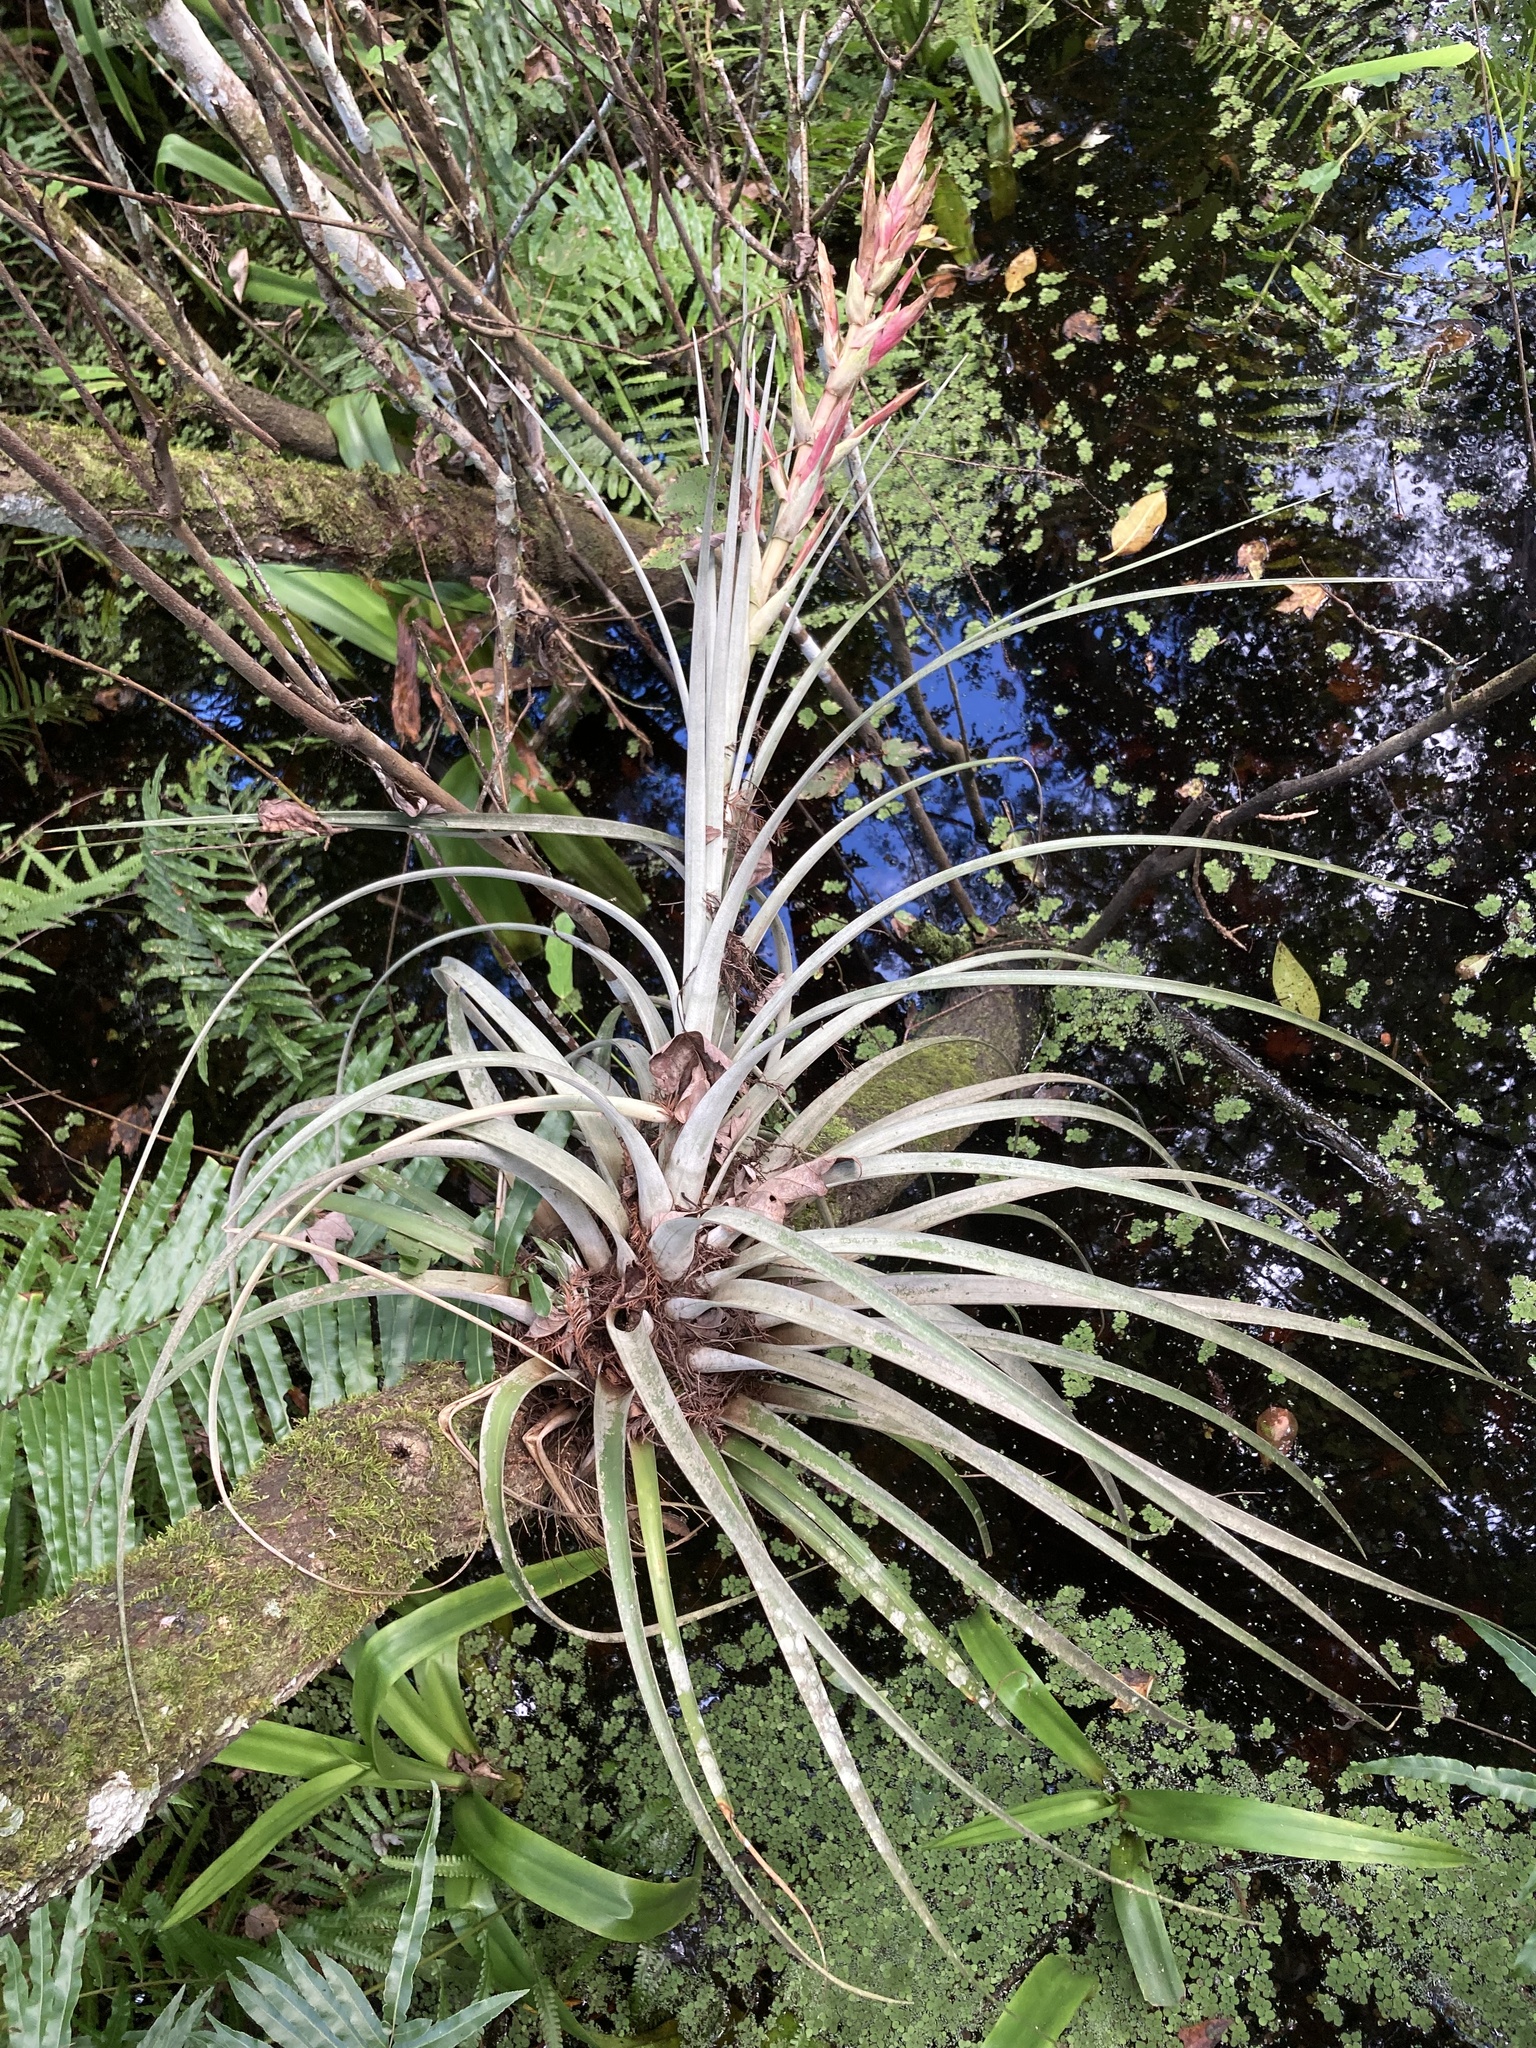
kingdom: Plantae
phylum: Tracheophyta
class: Liliopsida
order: Poales
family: Bromeliaceae
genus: Tillandsia
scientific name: Tillandsia fasciculata
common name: Giant airplant
